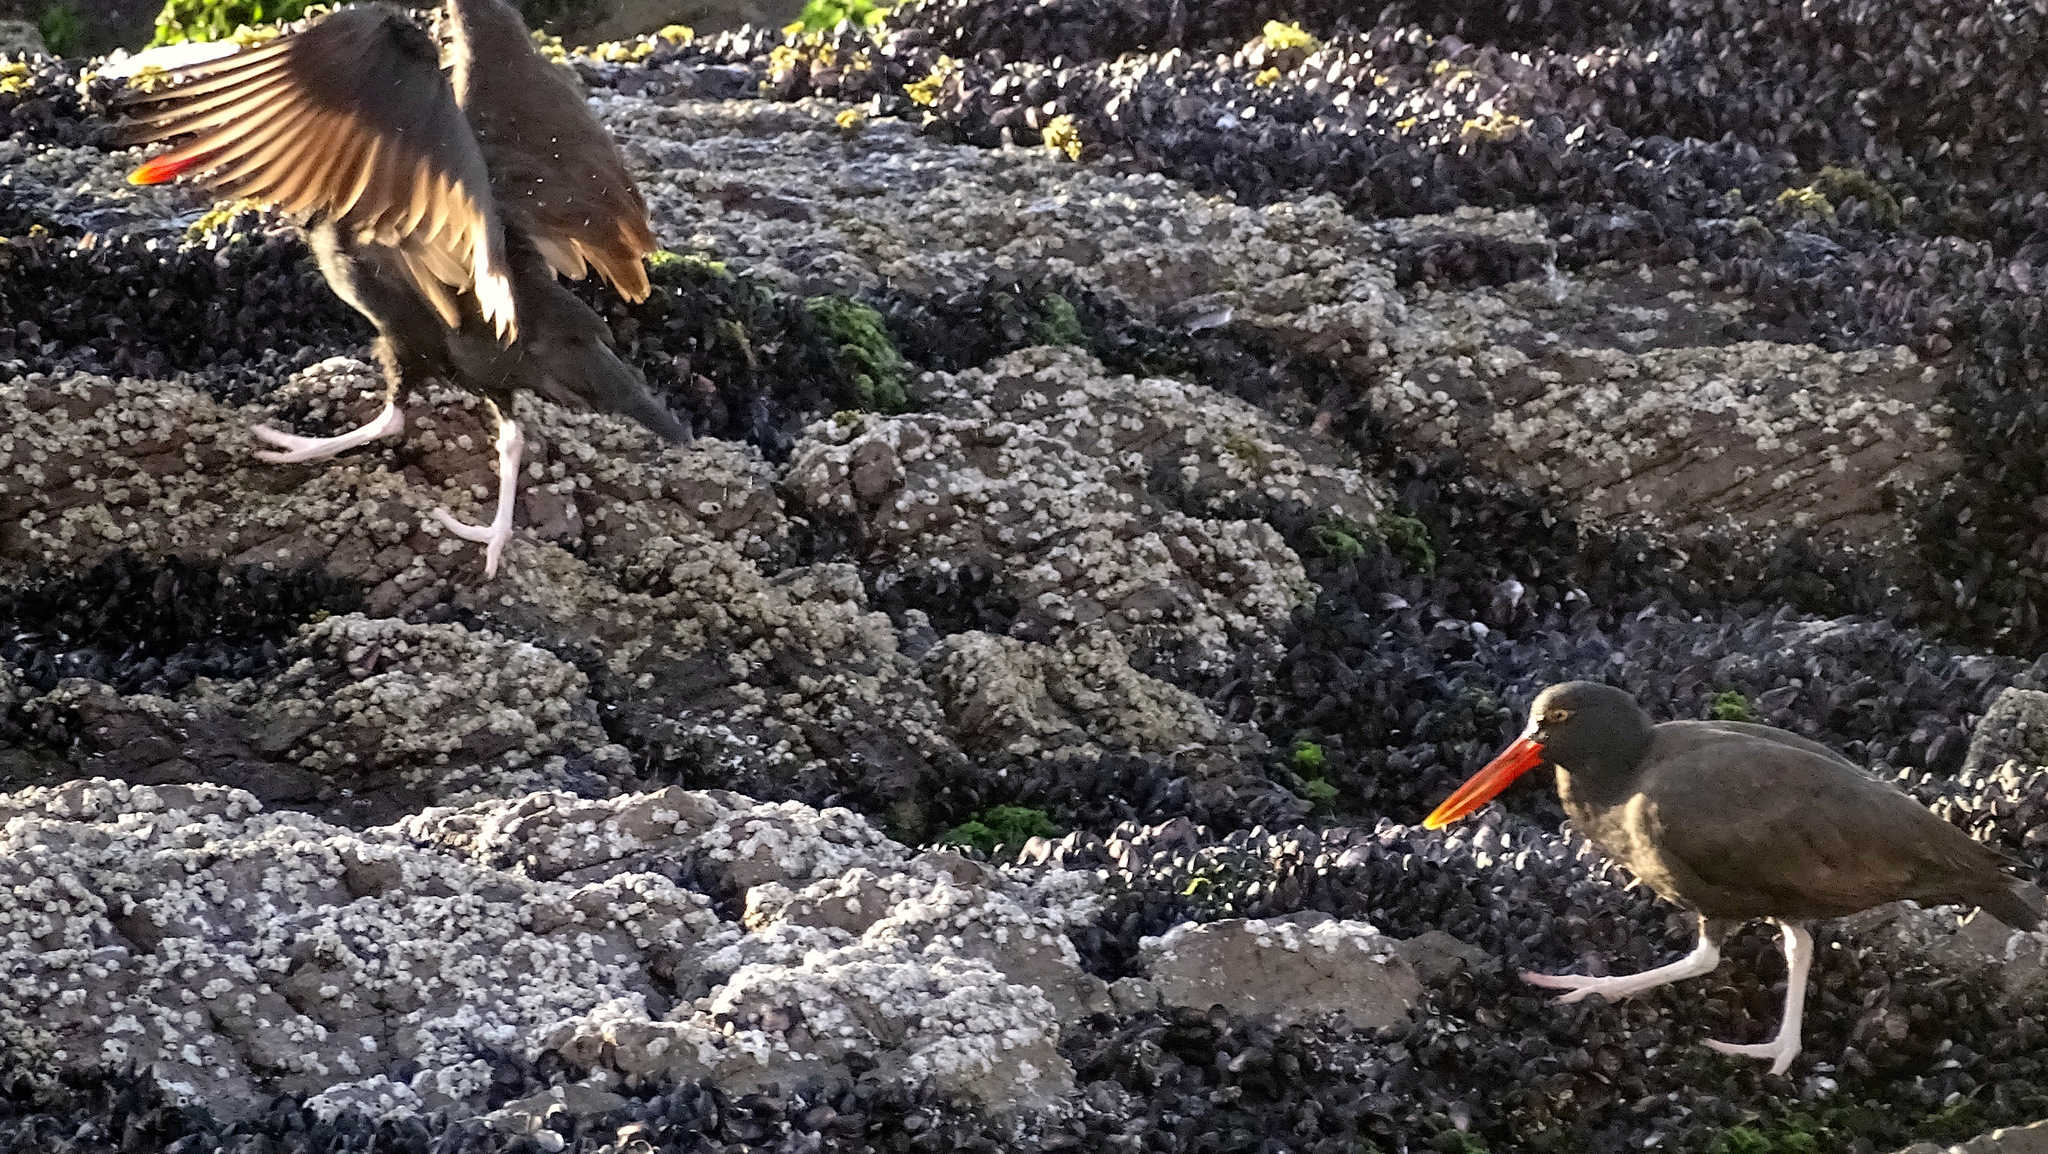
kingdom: Animalia
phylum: Chordata
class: Aves
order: Charadriiformes
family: Haematopodidae
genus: Haematopus
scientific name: Haematopus ater
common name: Blackish oystercatcher
